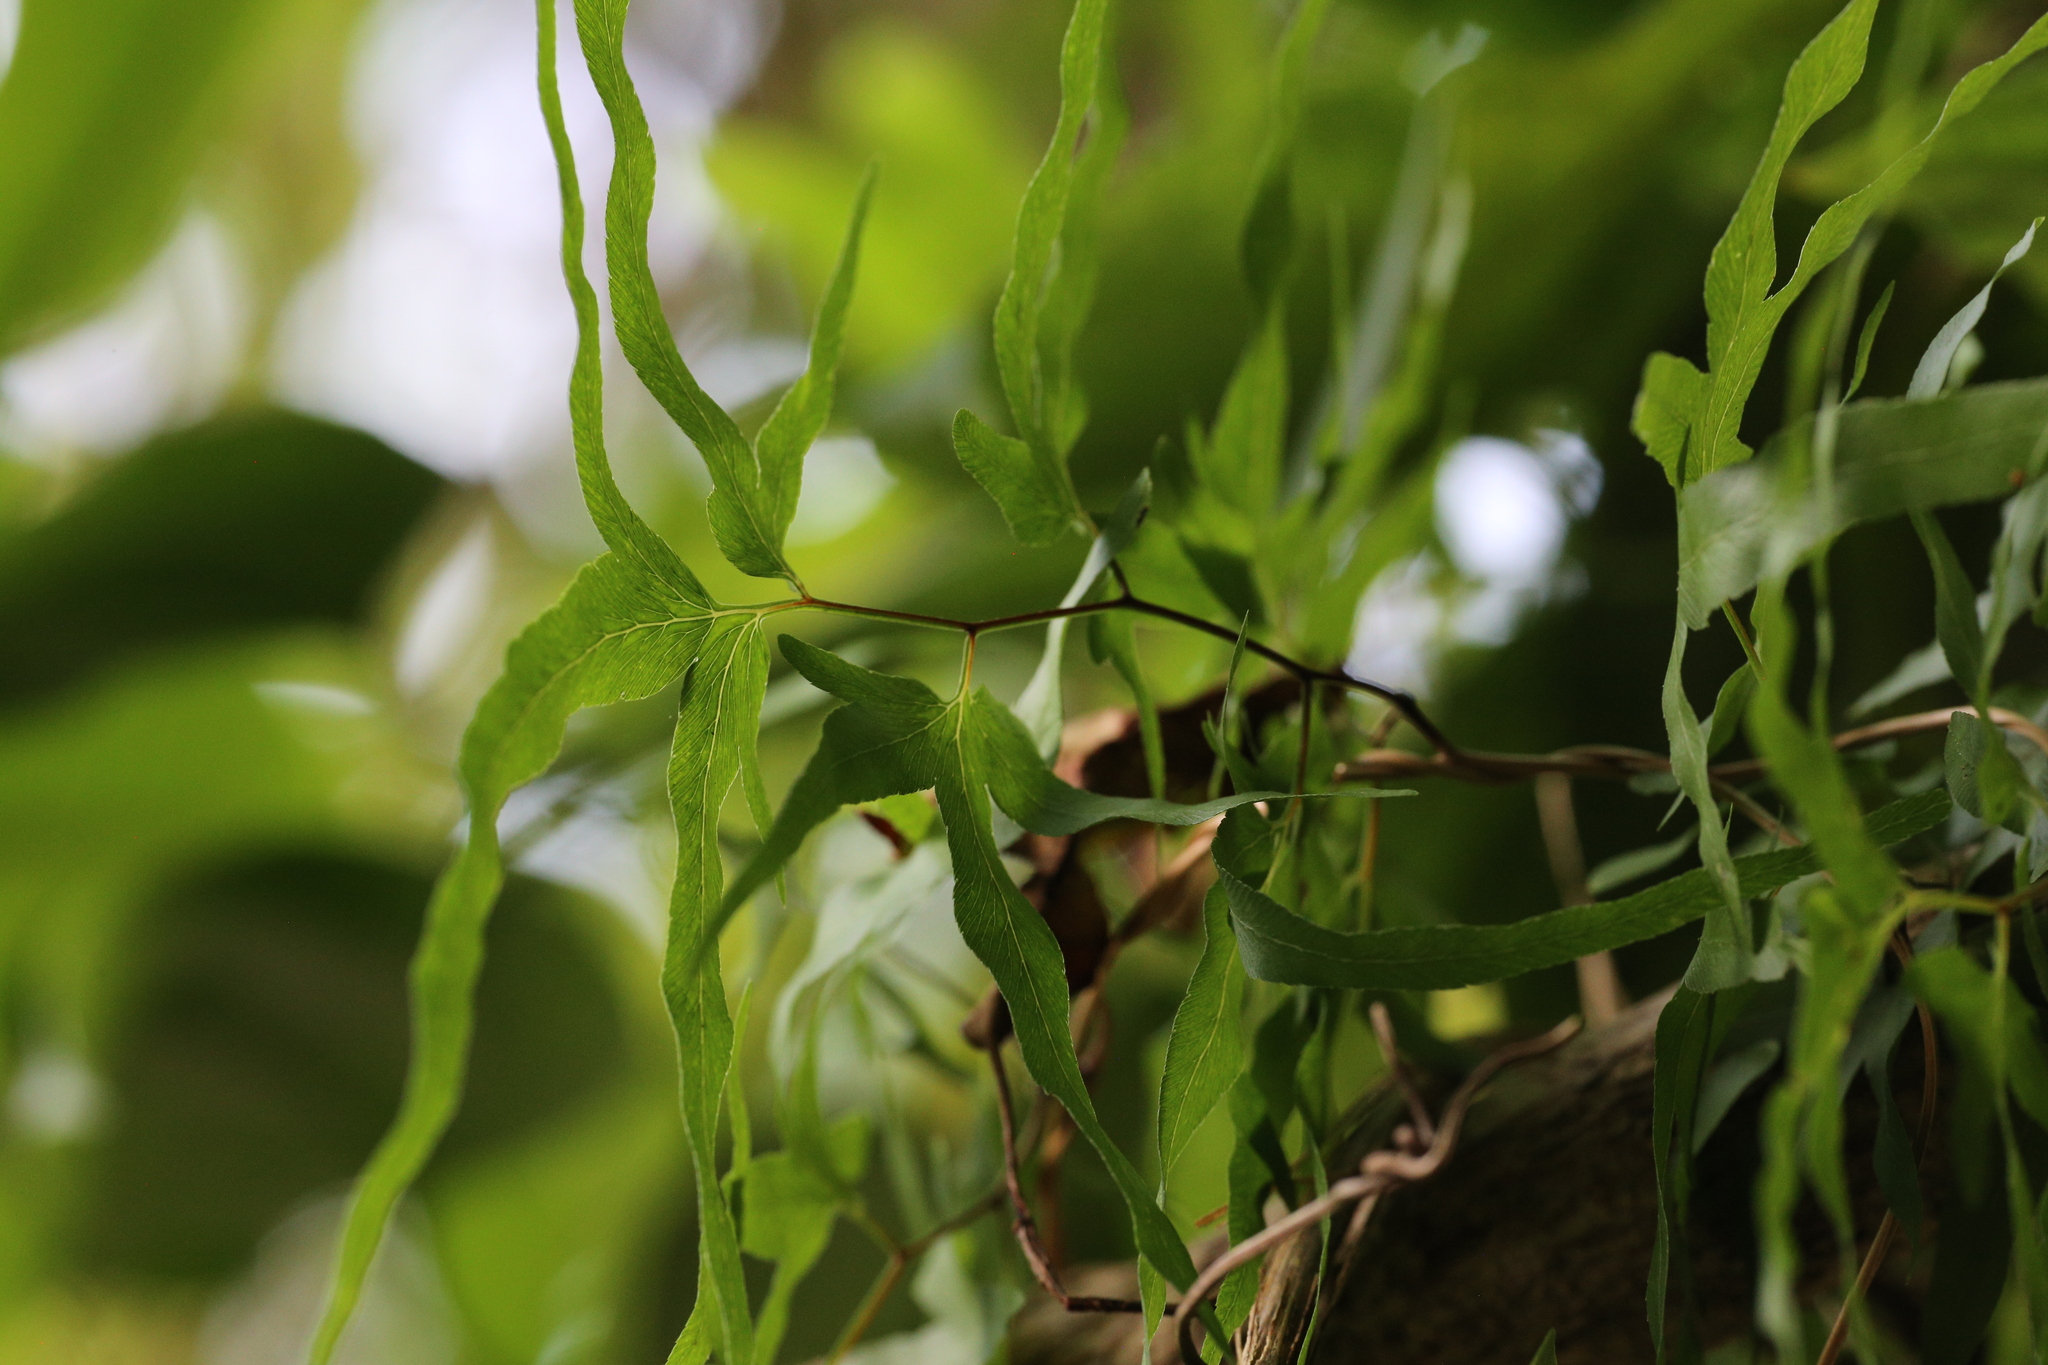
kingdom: Plantae
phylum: Tracheophyta
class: Polypodiopsida
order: Schizaeales
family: Lygodiaceae
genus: Lygodium
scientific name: Lygodium japonicum
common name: Japanese climbing fern
